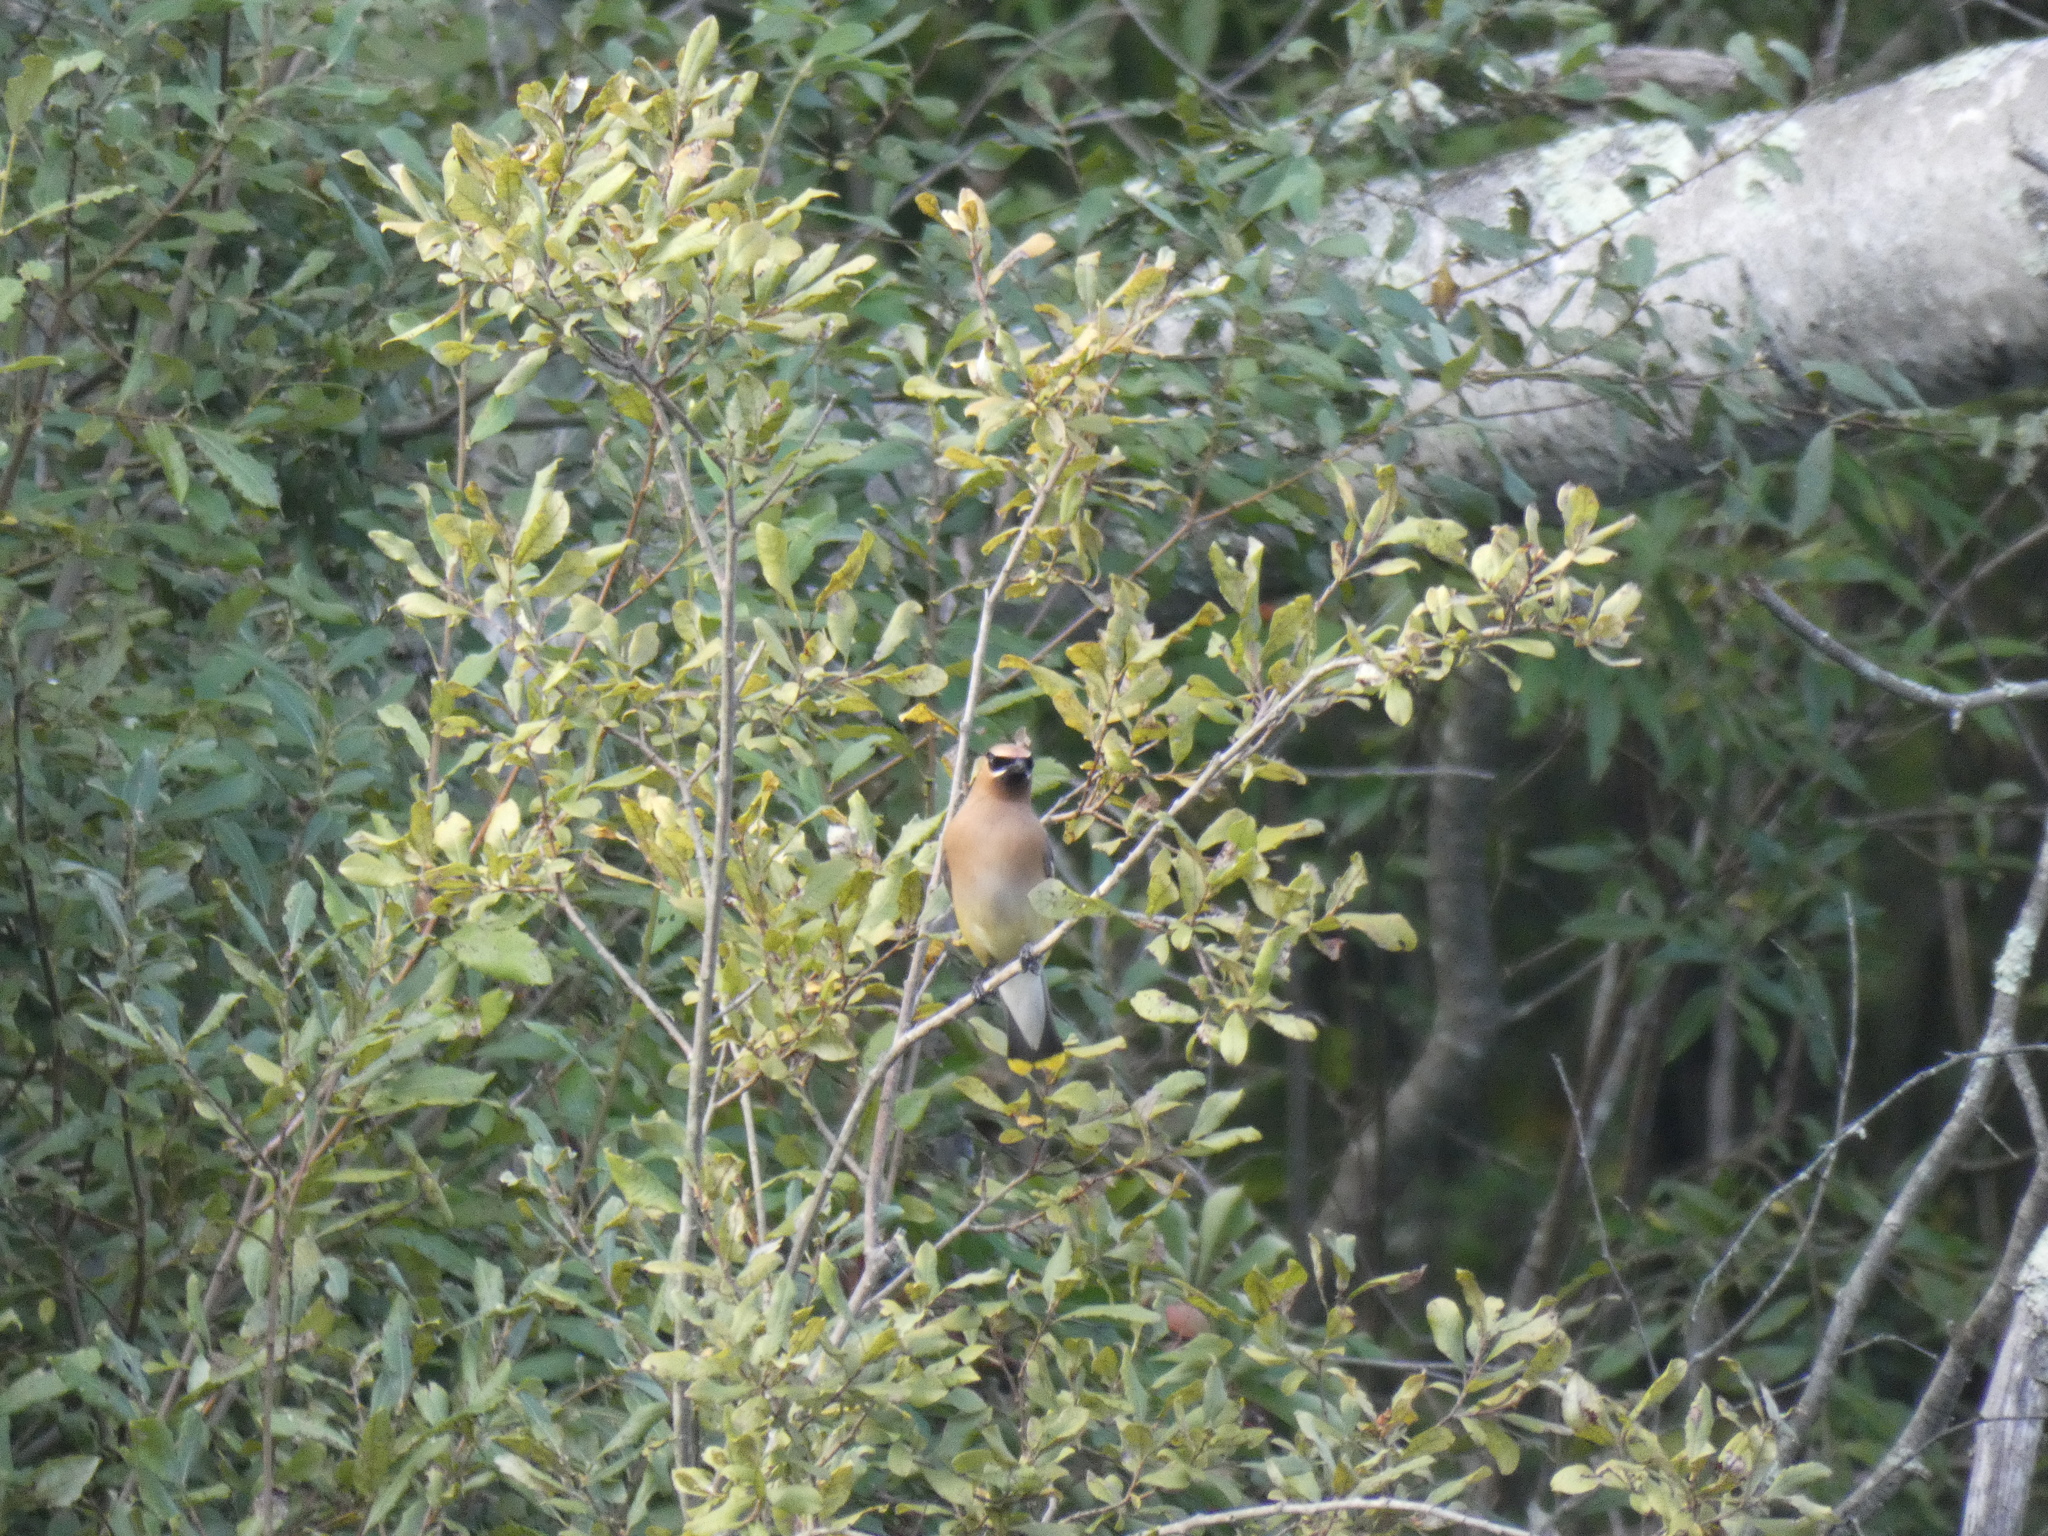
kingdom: Animalia
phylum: Chordata
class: Aves
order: Passeriformes
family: Bombycillidae
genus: Bombycilla
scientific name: Bombycilla cedrorum
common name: Cedar waxwing
